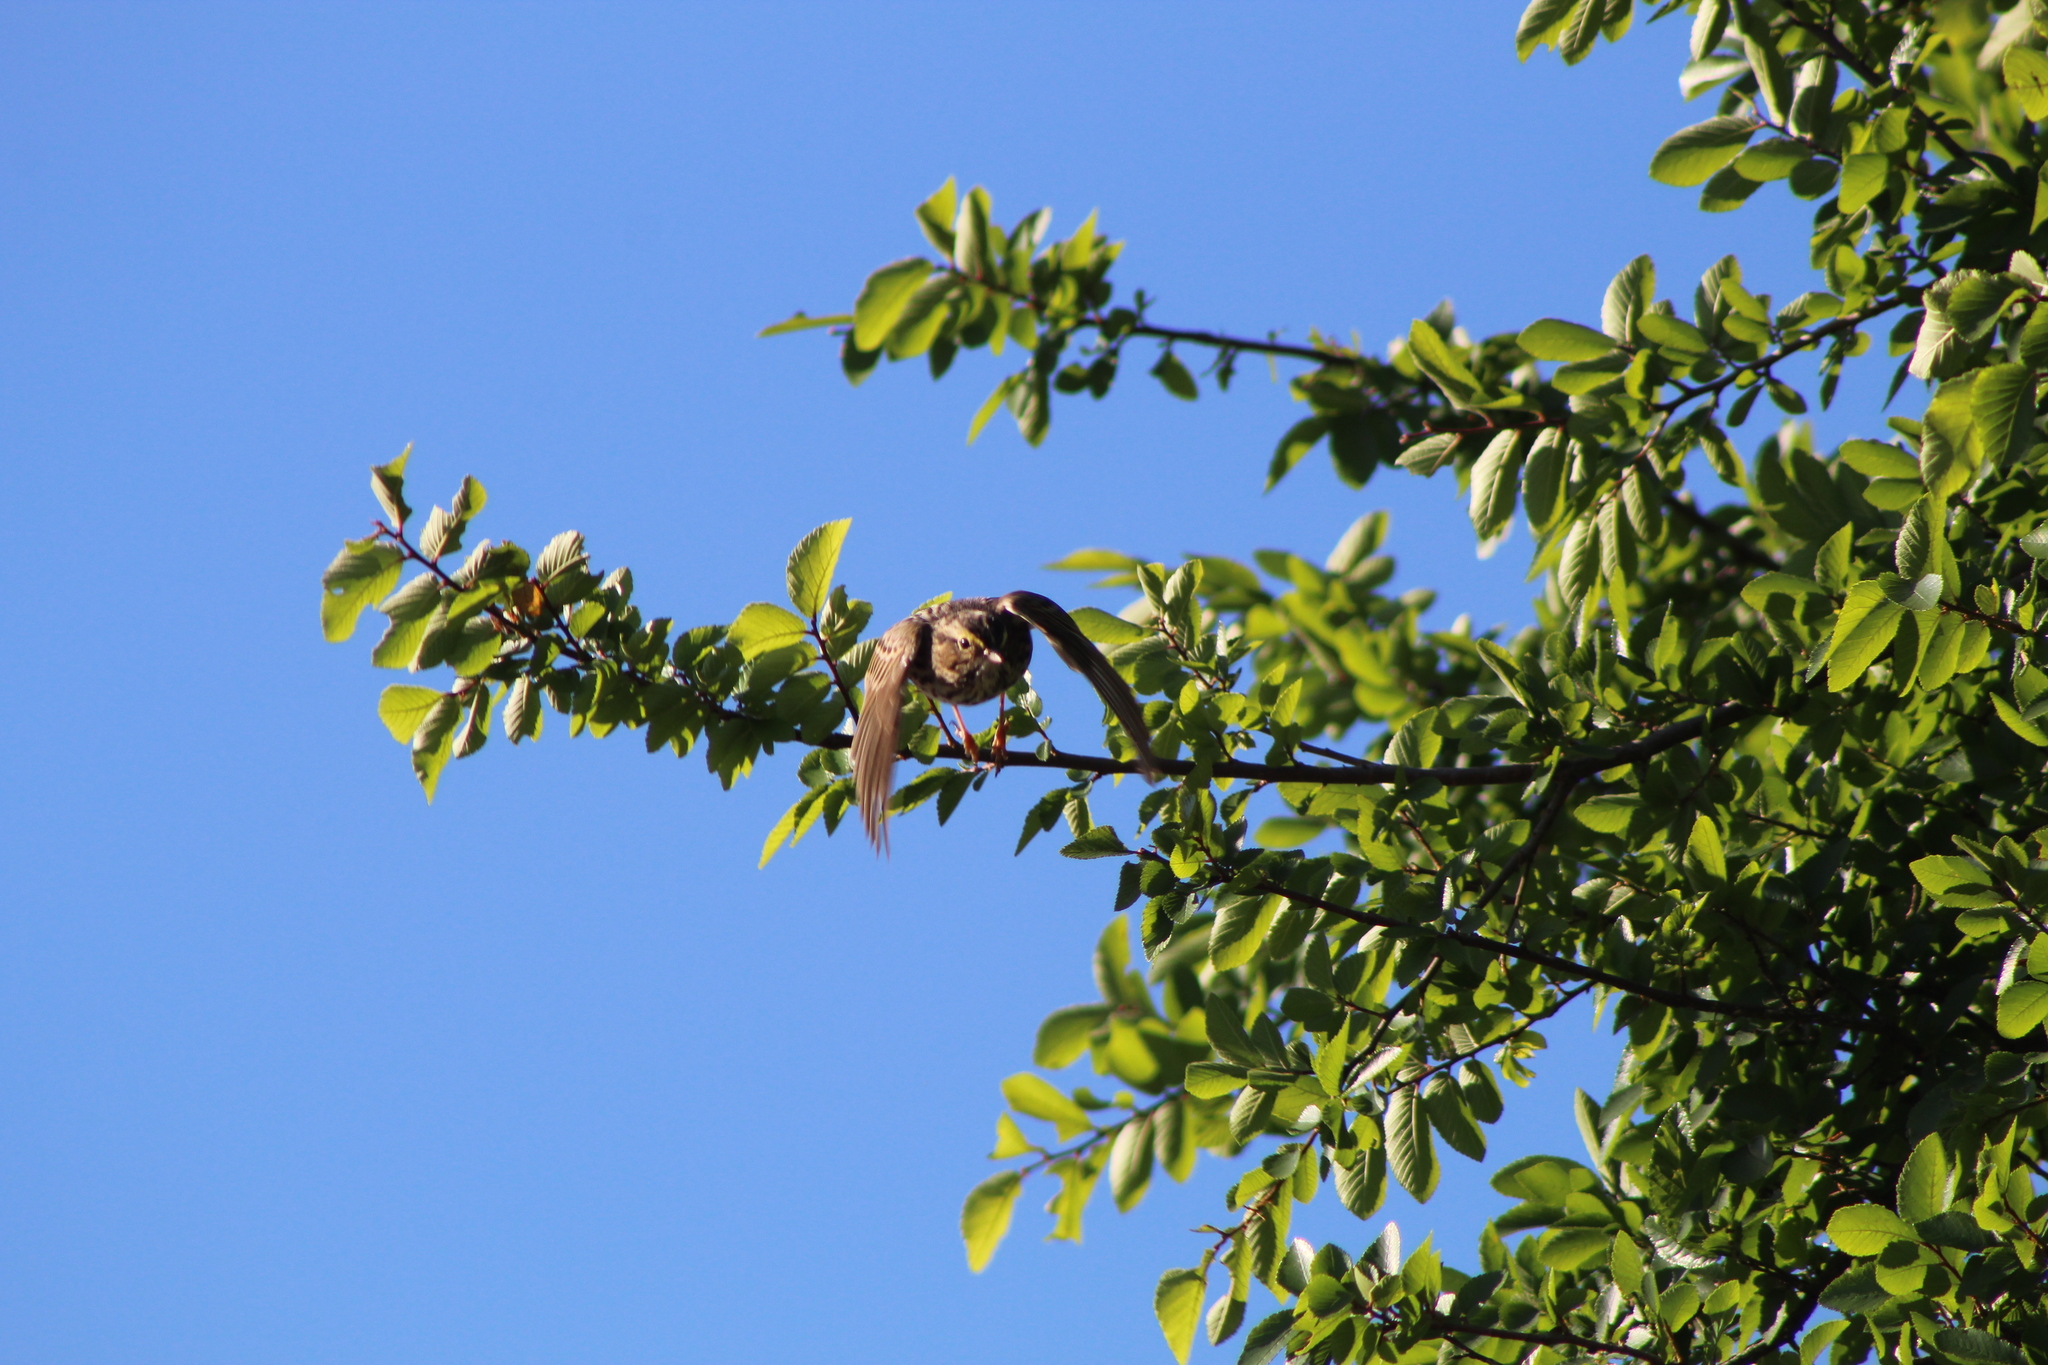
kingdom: Animalia
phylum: Chordata
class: Aves
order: Passeriformes
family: Passerellidae
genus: Passerculus
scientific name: Passerculus sandwichensis
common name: Savannah sparrow
